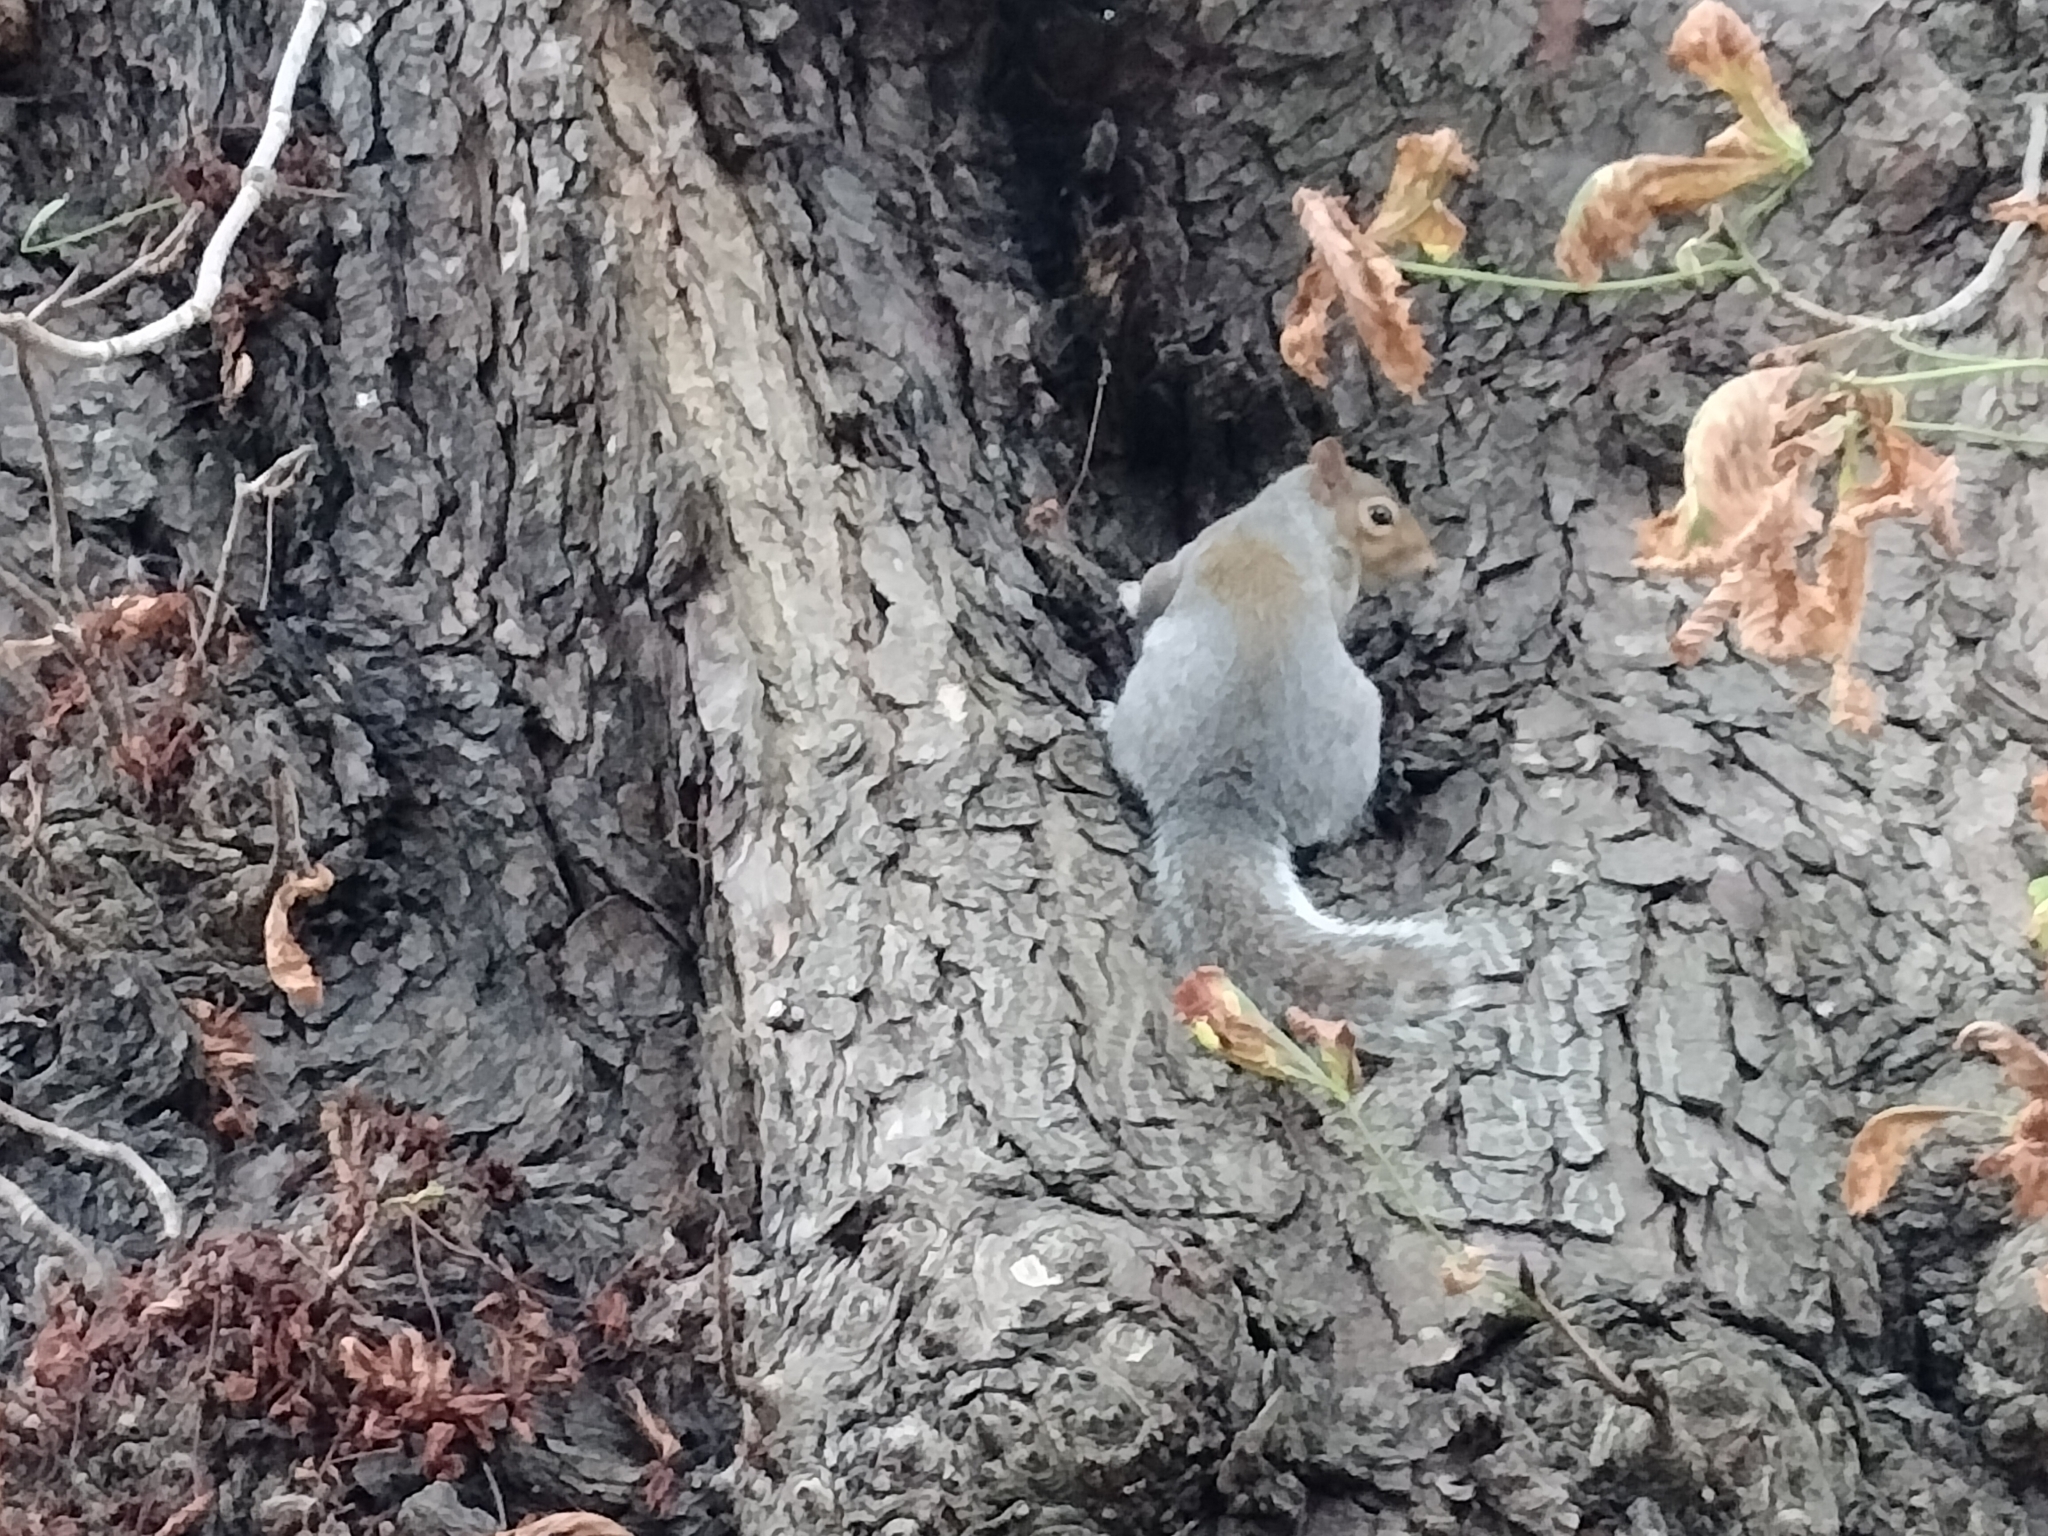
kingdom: Animalia
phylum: Chordata
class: Mammalia
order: Rodentia
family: Sciuridae
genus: Sciurus
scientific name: Sciurus carolinensis
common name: Eastern gray squirrel
